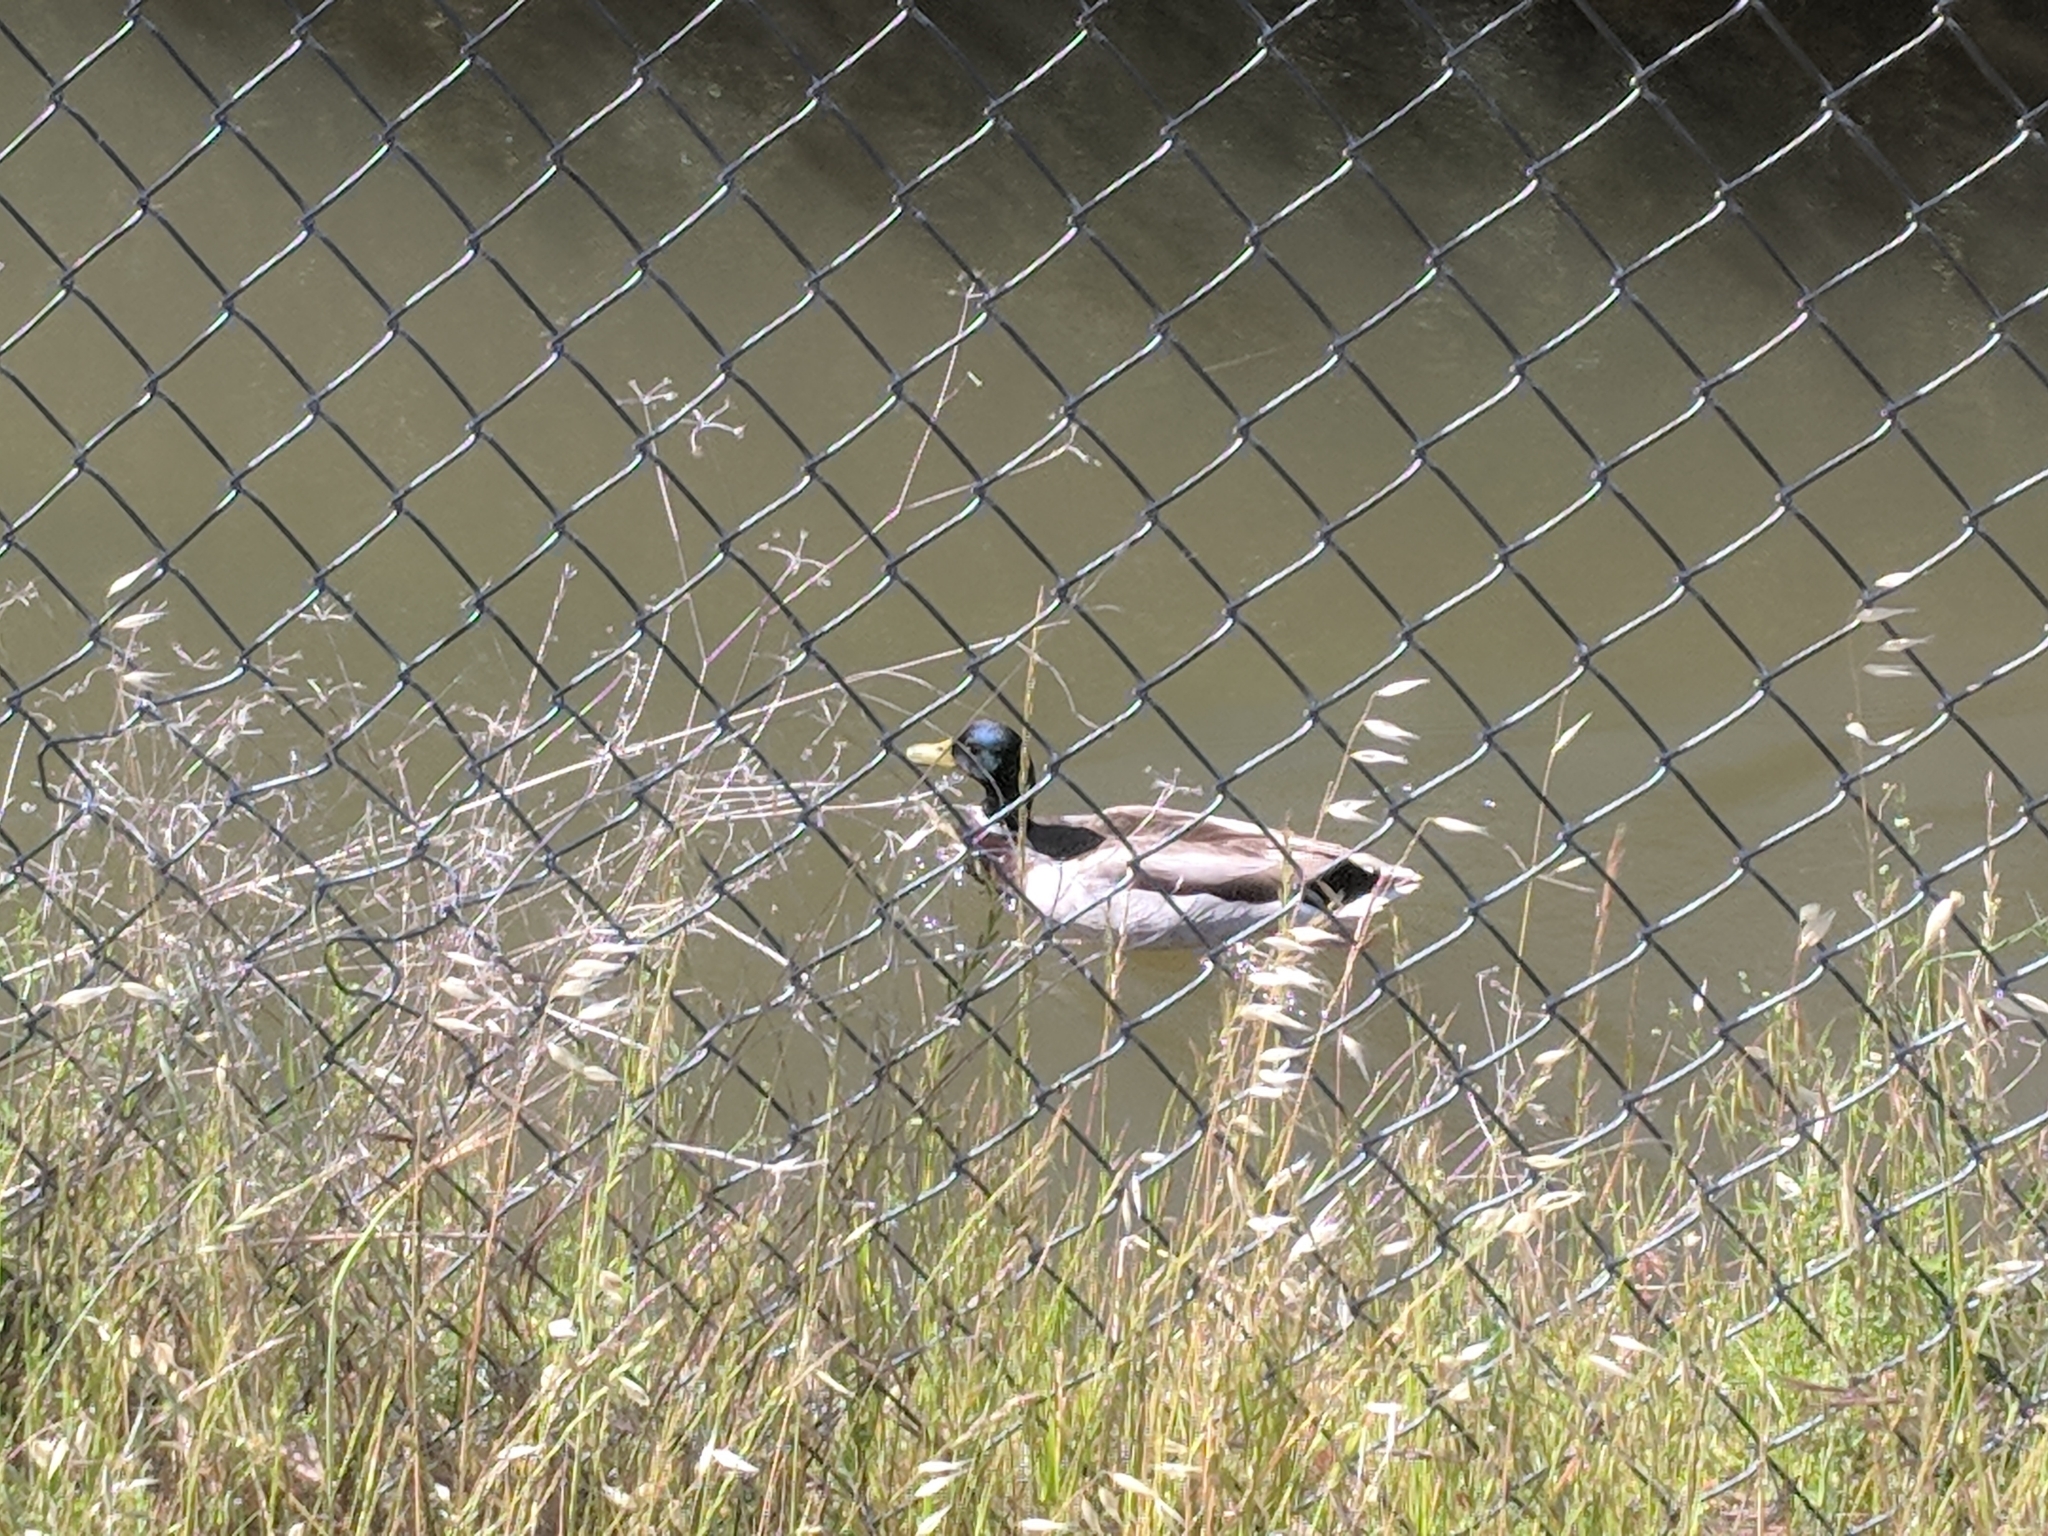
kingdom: Animalia
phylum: Chordata
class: Aves
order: Anseriformes
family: Anatidae
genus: Anas
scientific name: Anas platyrhynchos
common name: Mallard
